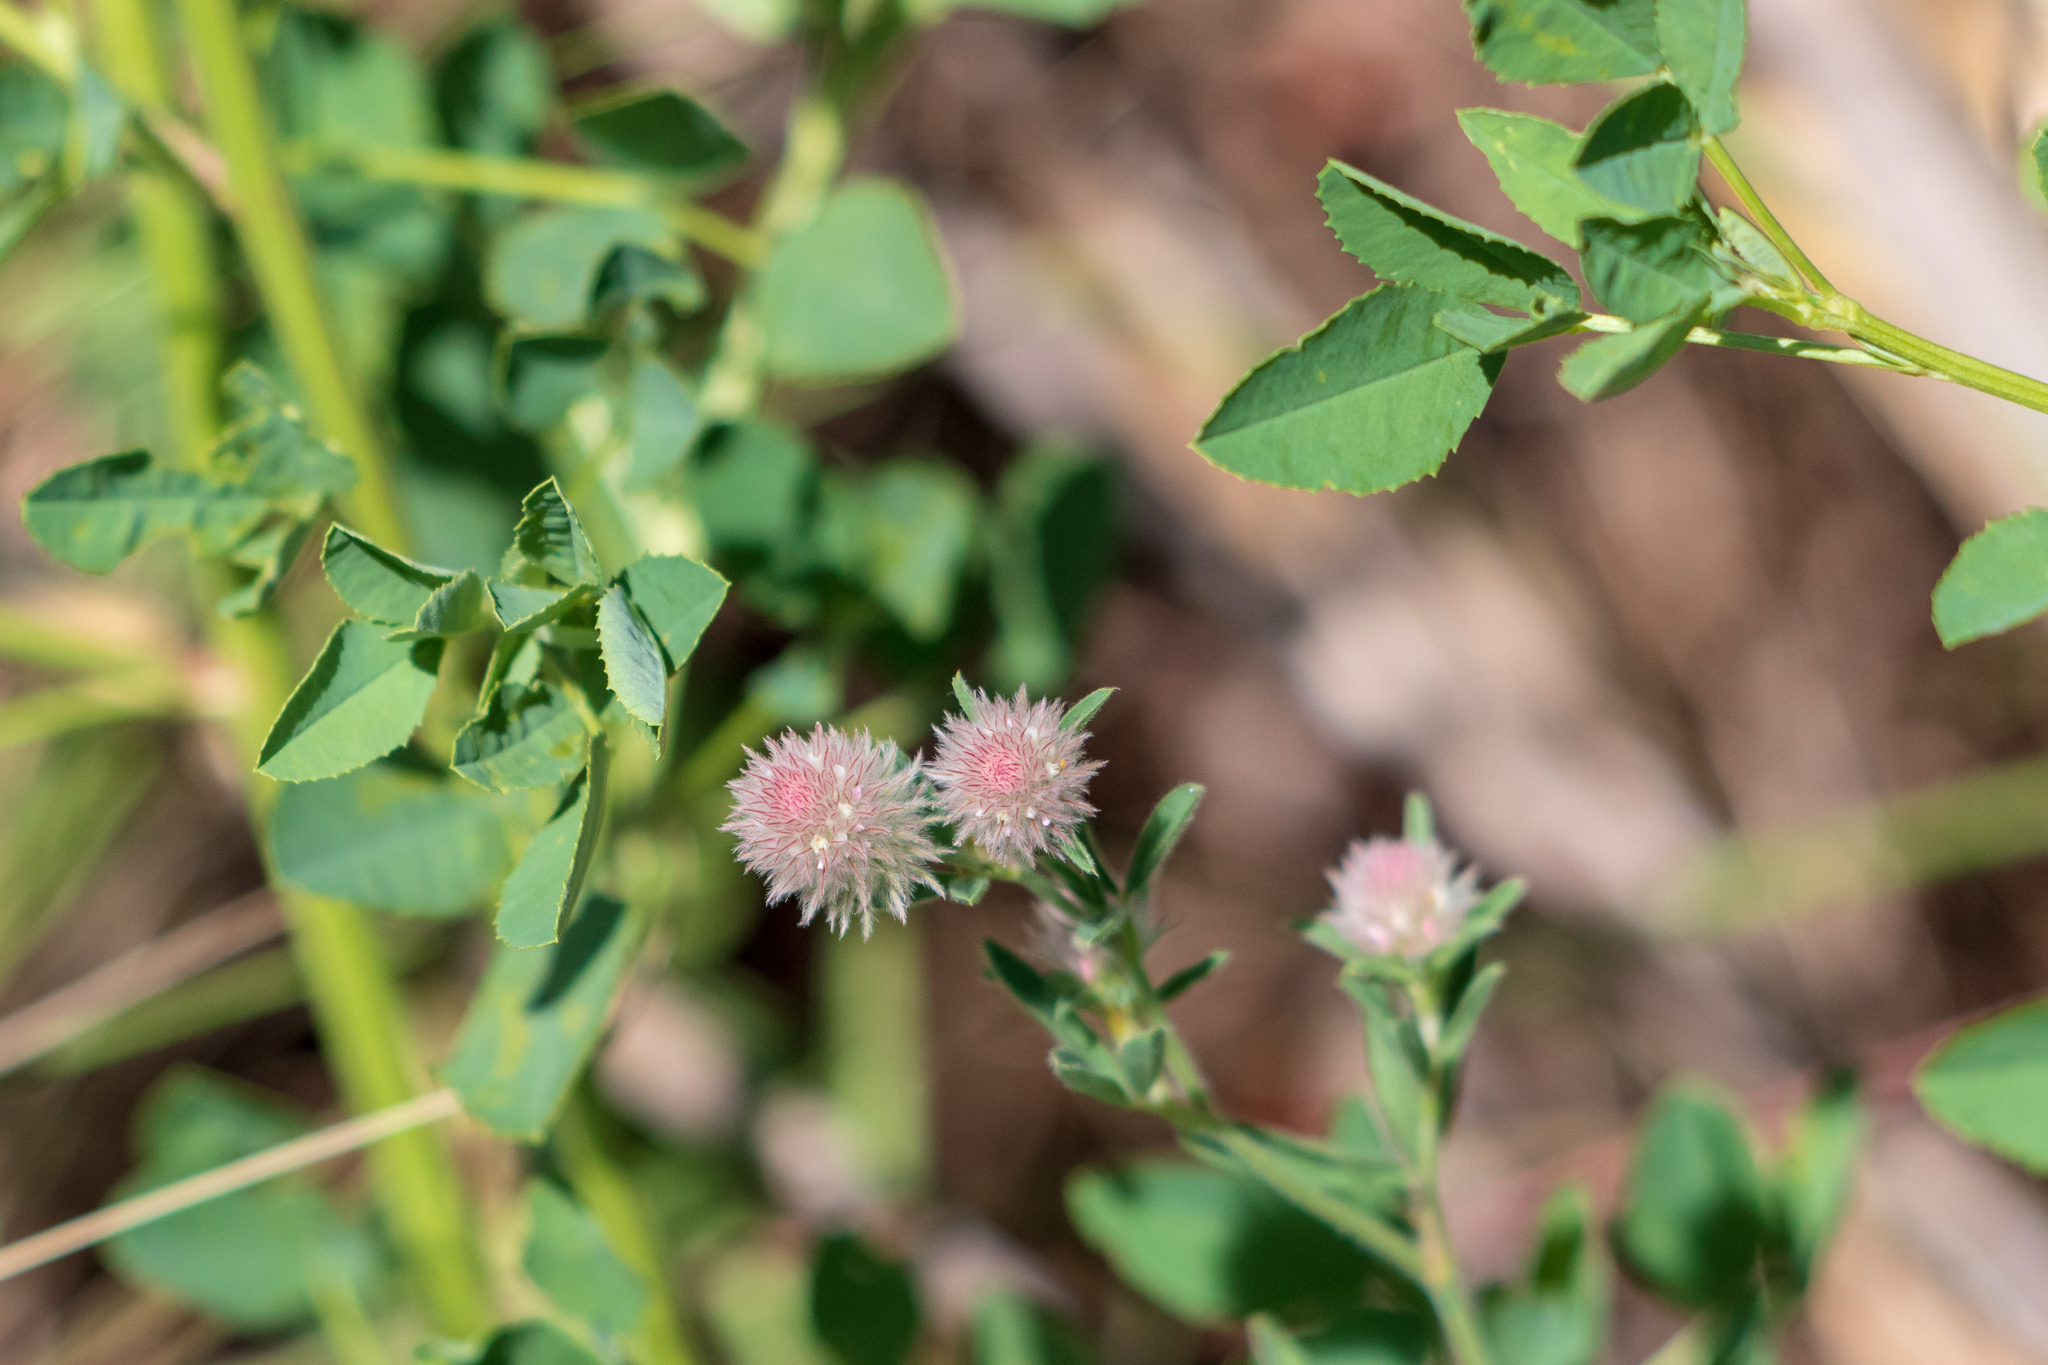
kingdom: Plantae
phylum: Tracheophyta
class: Magnoliopsida
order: Fabales
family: Fabaceae
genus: Trifolium
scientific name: Trifolium arvense
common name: Hare's-foot clover
